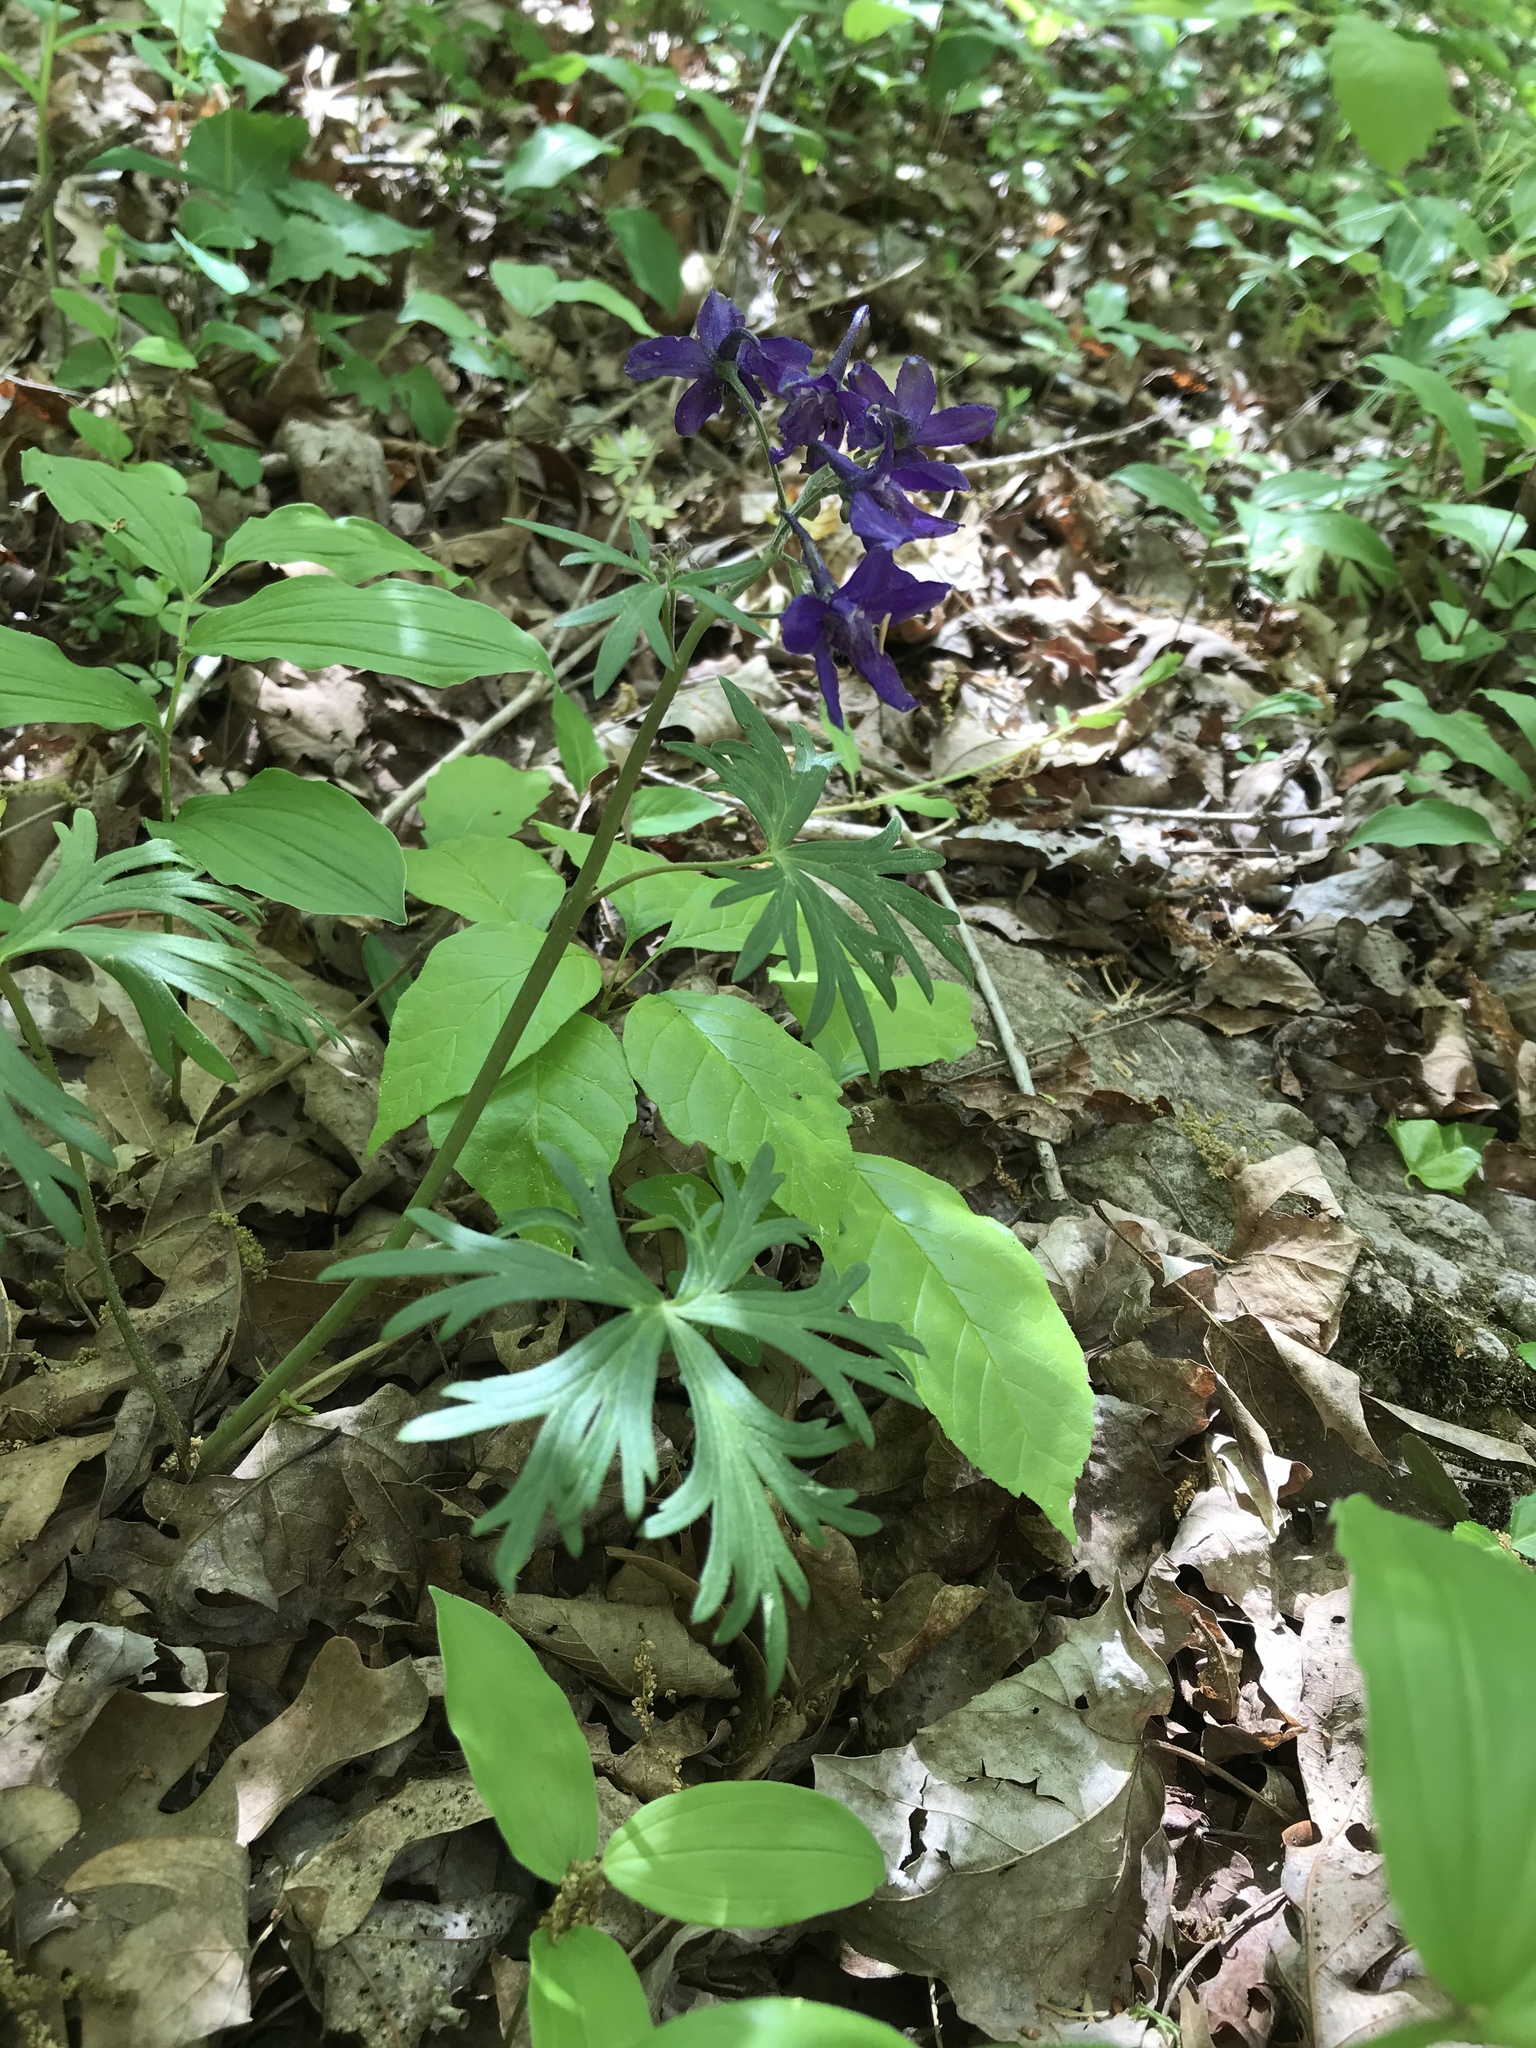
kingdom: Plantae
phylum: Tracheophyta
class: Magnoliopsida
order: Ranunculales
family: Ranunculaceae
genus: Delphinium
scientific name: Delphinium tricorne
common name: Dwarf larkspur
